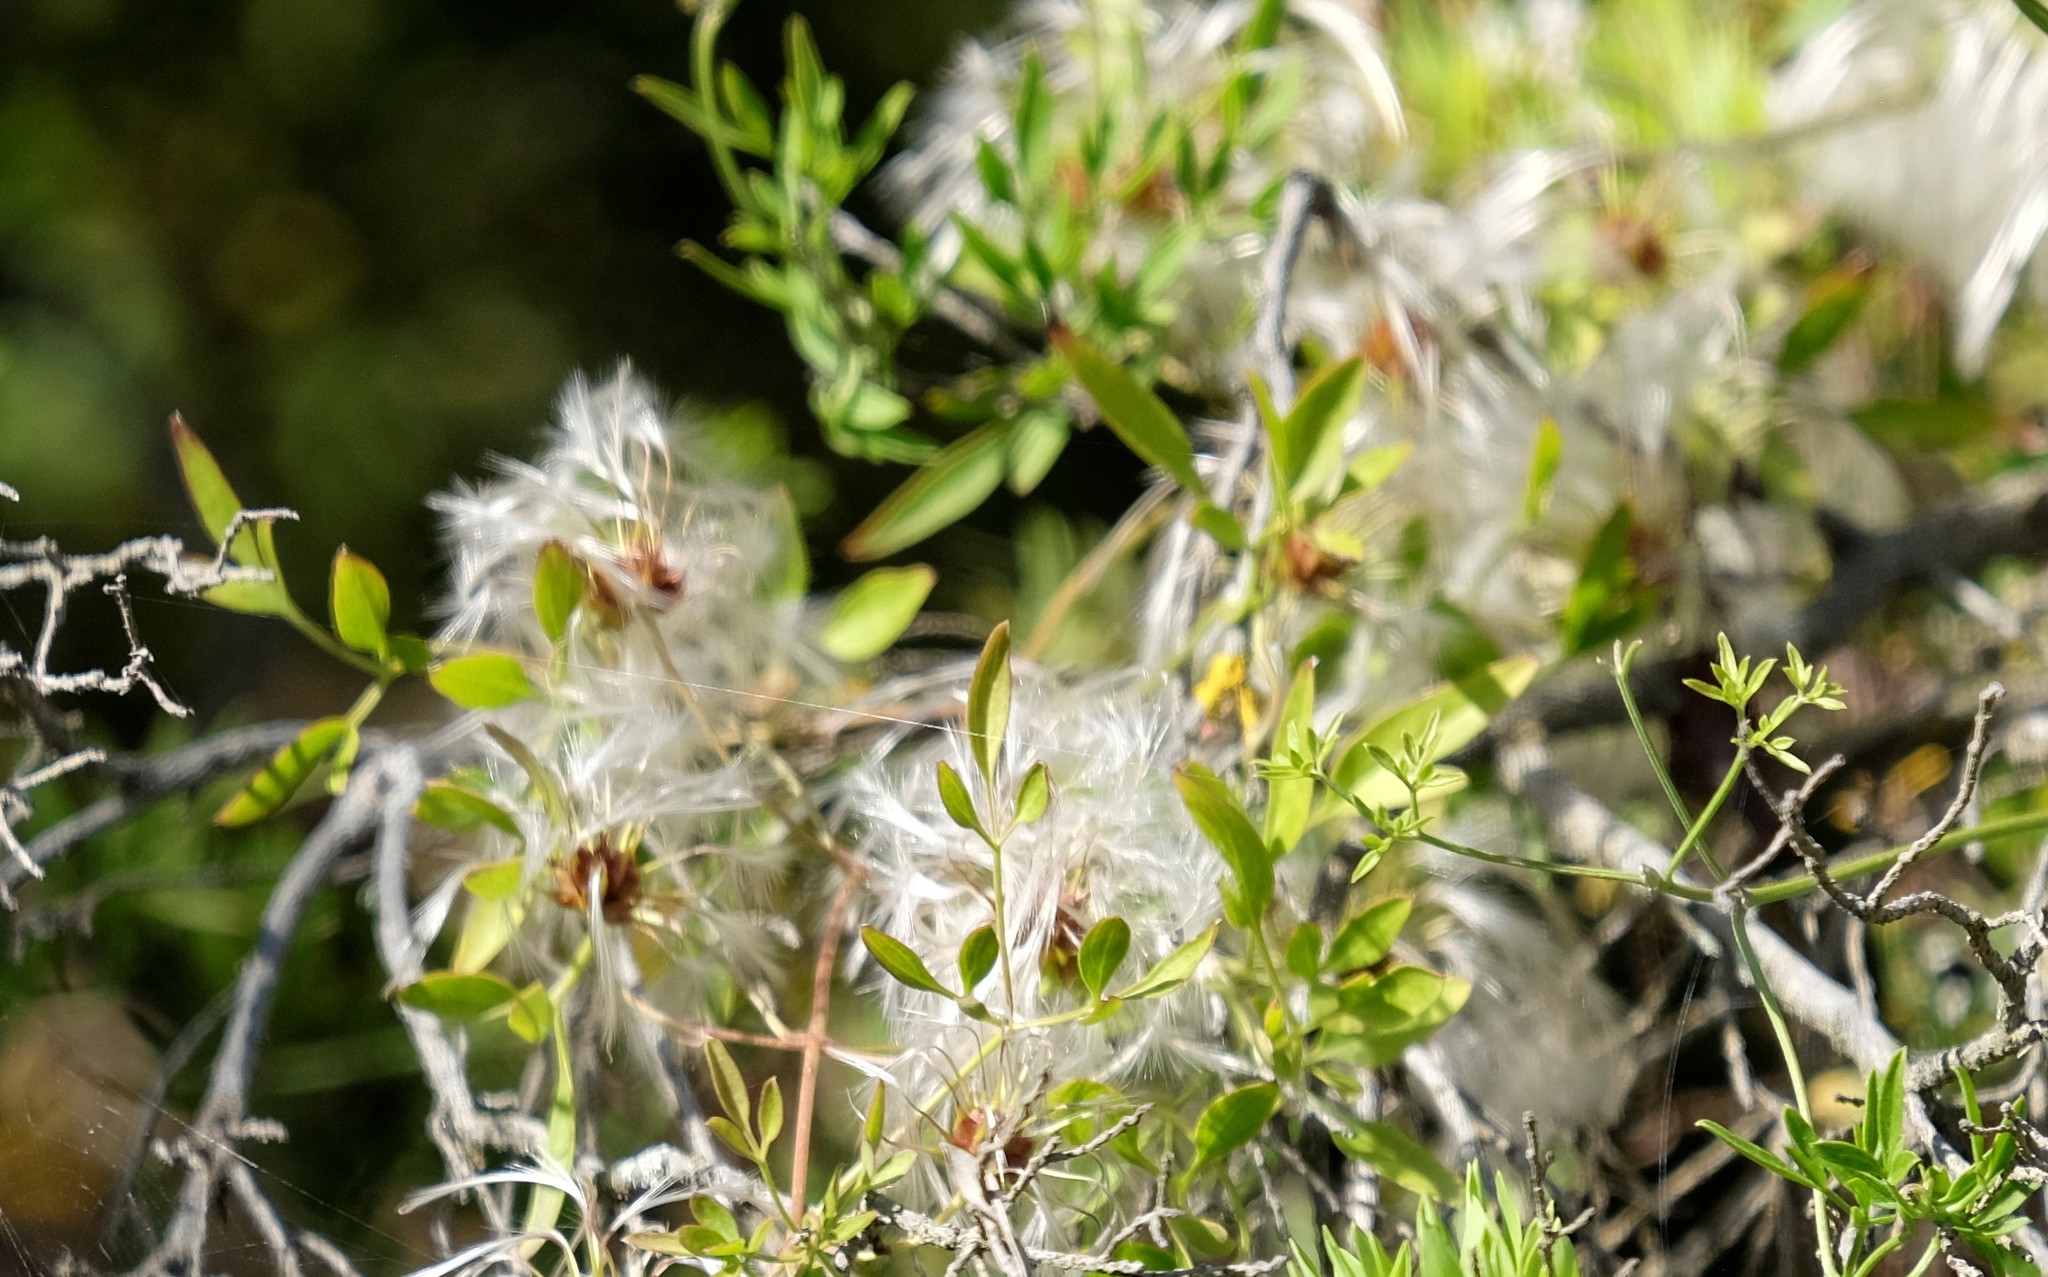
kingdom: Plantae
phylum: Tracheophyta
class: Magnoliopsida
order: Ranunculales
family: Ranunculaceae
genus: Clematis
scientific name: Clematis microphylla
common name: Headachevine
